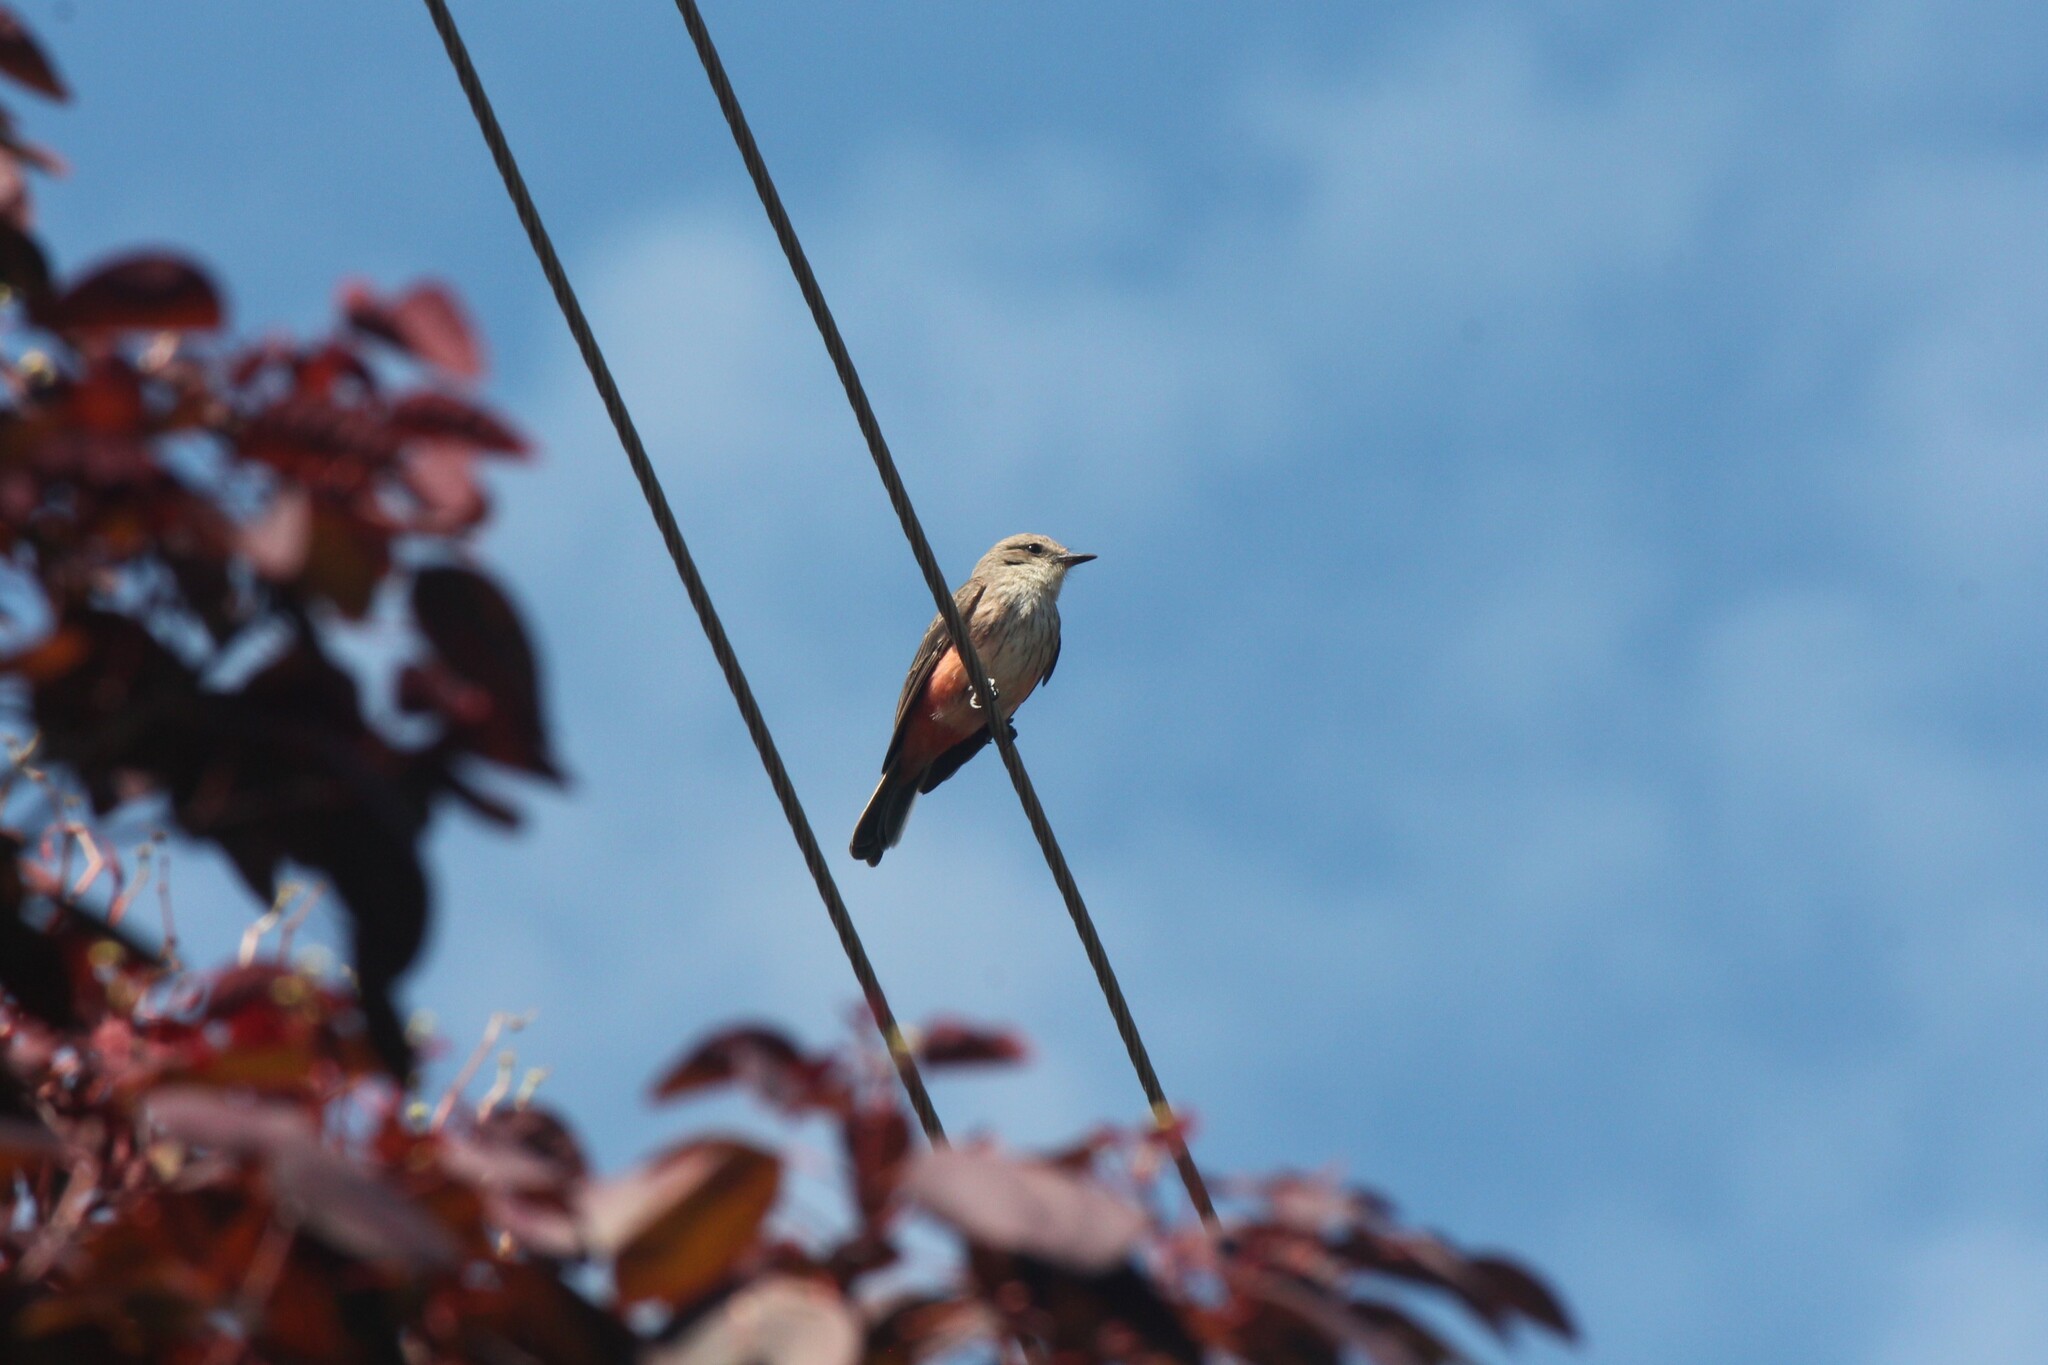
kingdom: Animalia
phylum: Chordata
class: Aves
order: Passeriformes
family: Tyrannidae
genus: Pyrocephalus
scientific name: Pyrocephalus rubinus
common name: Vermilion flycatcher
